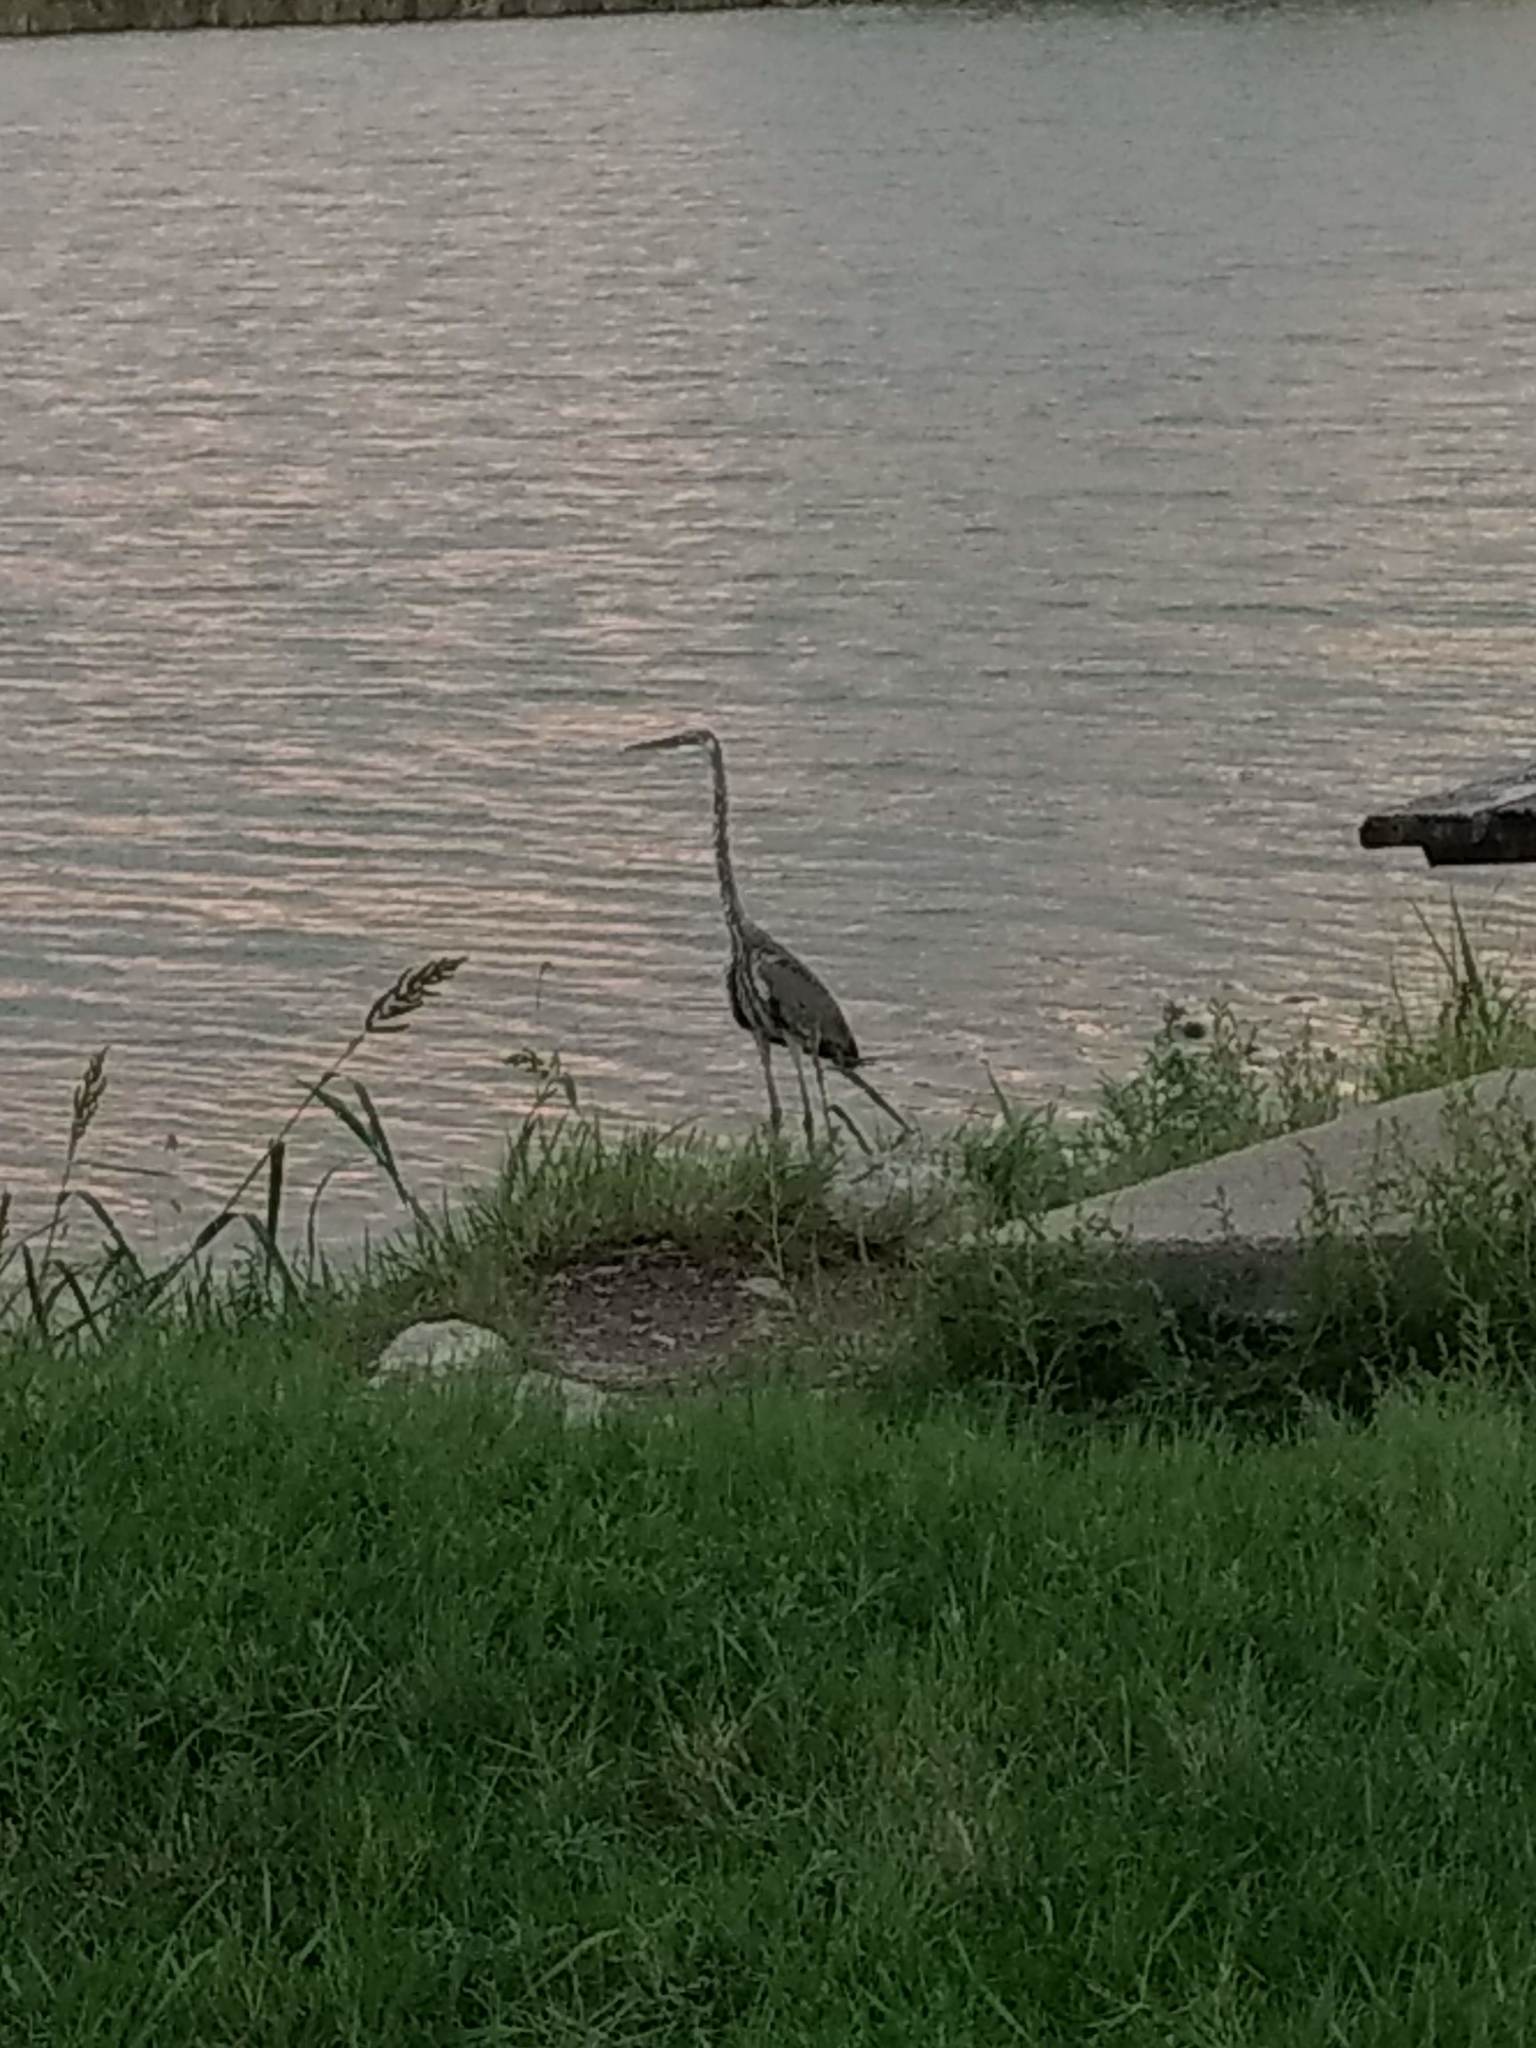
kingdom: Animalia
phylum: Chordata
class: Aves
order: Pelecaniformes
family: Ardeidae
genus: Ardea
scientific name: Ardea herodias
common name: Great blue heron
